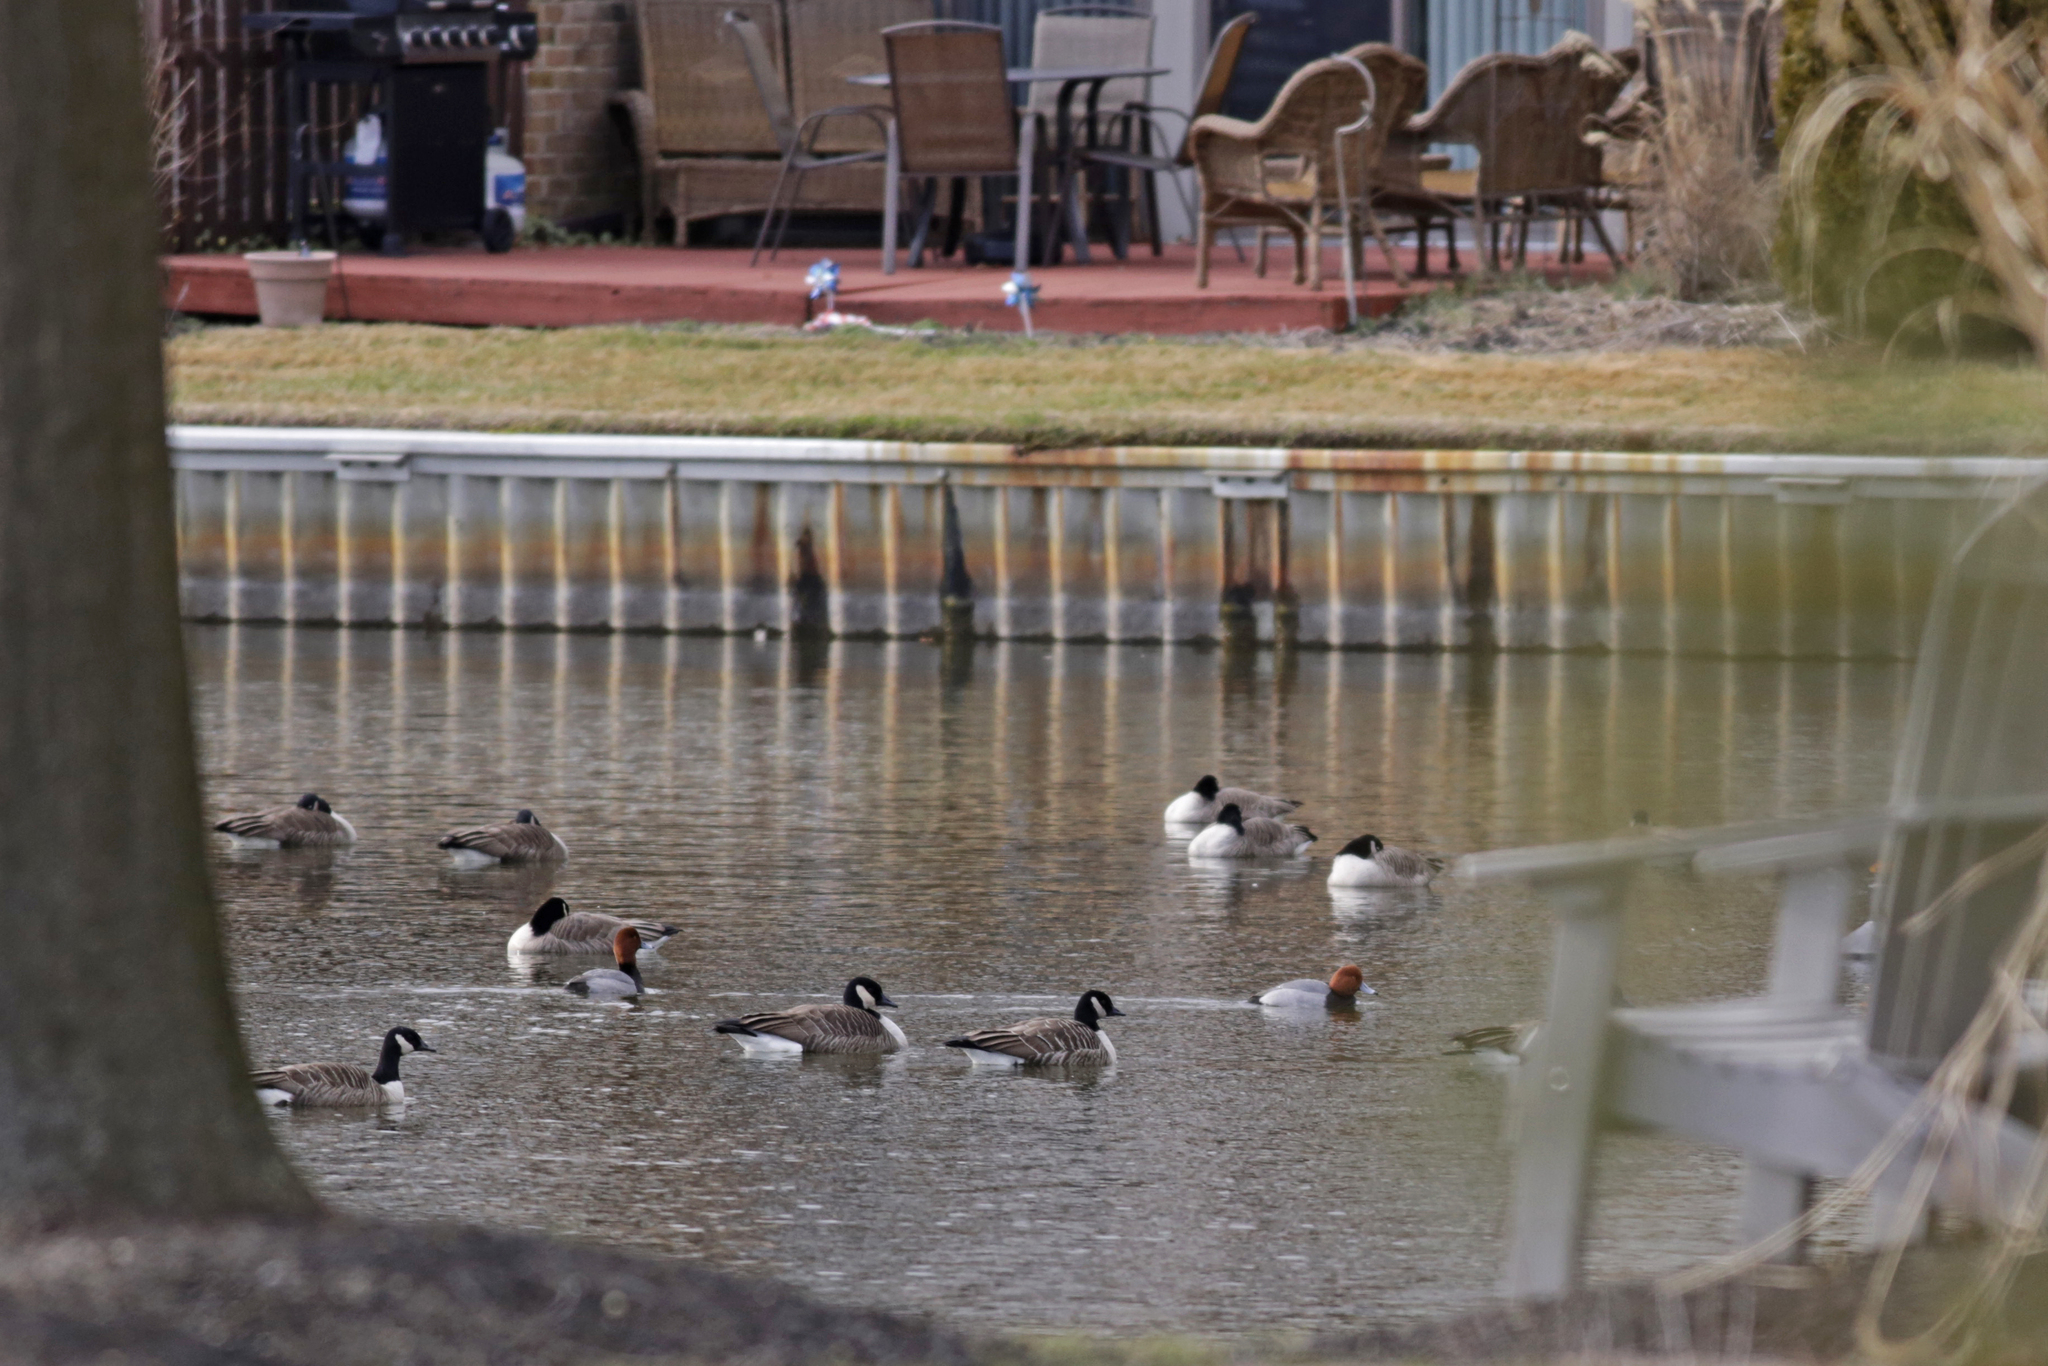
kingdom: Animalia
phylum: Chordata
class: Aves
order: Anseriformes
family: Anatidae
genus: Aythya
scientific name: Aythya americana
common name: Redhead
